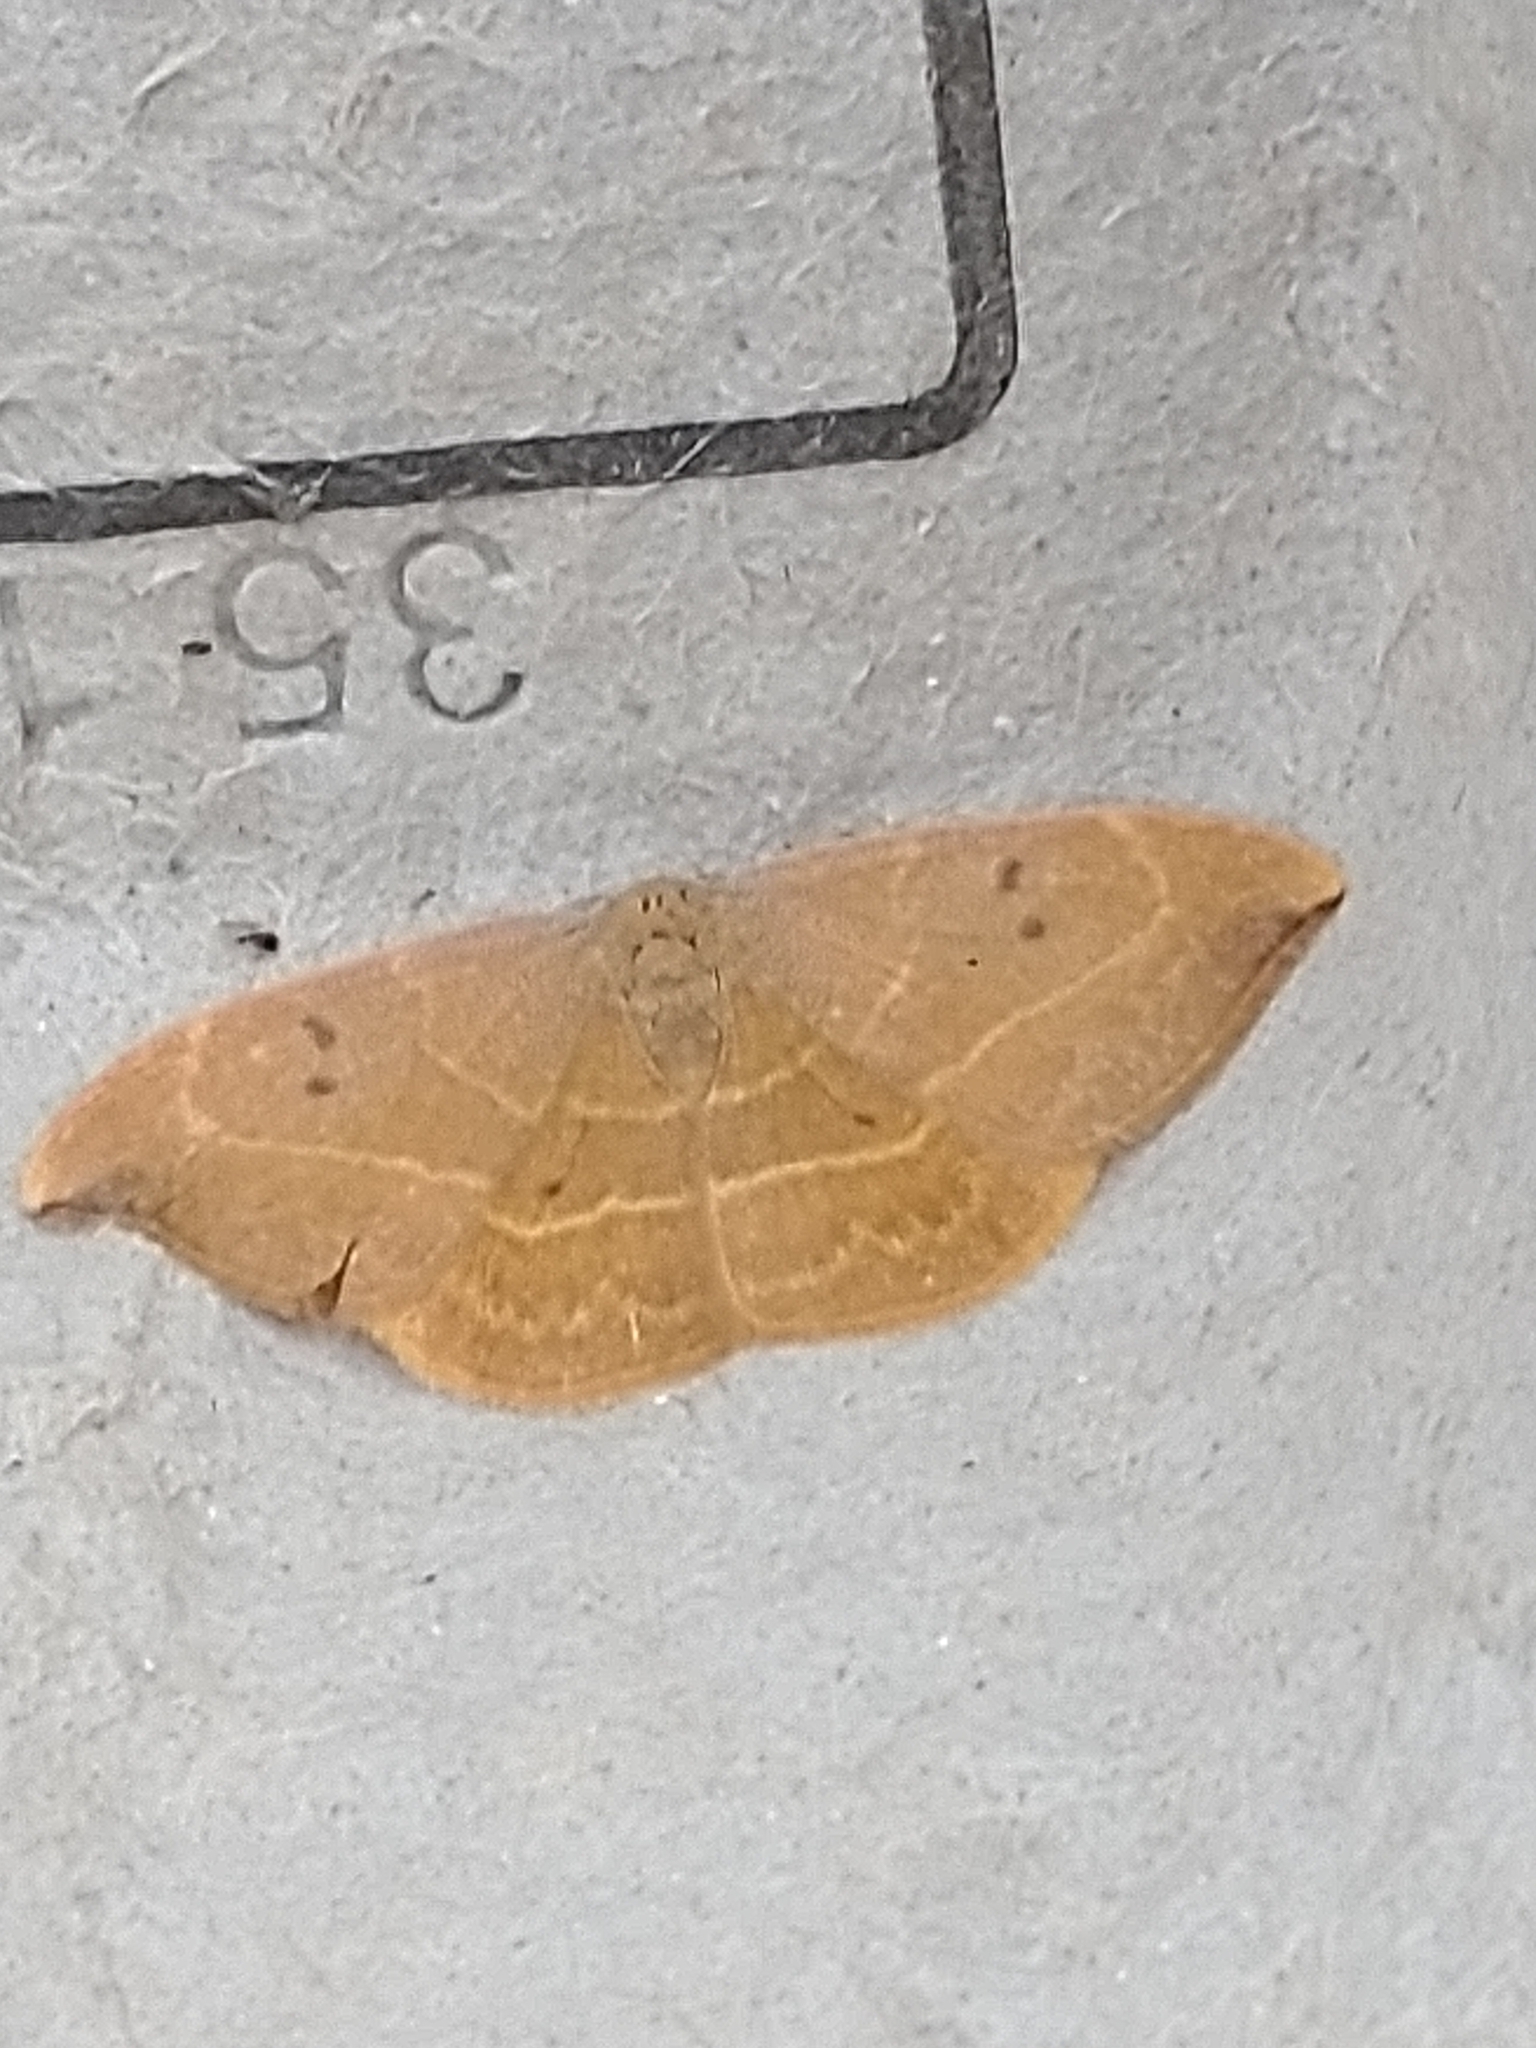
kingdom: Animalia
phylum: Arthropoda
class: Insecta
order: Lepidoptera
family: Drepanidae
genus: Watsonalla
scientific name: Watsonalla binaria
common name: Oak hook-tip
